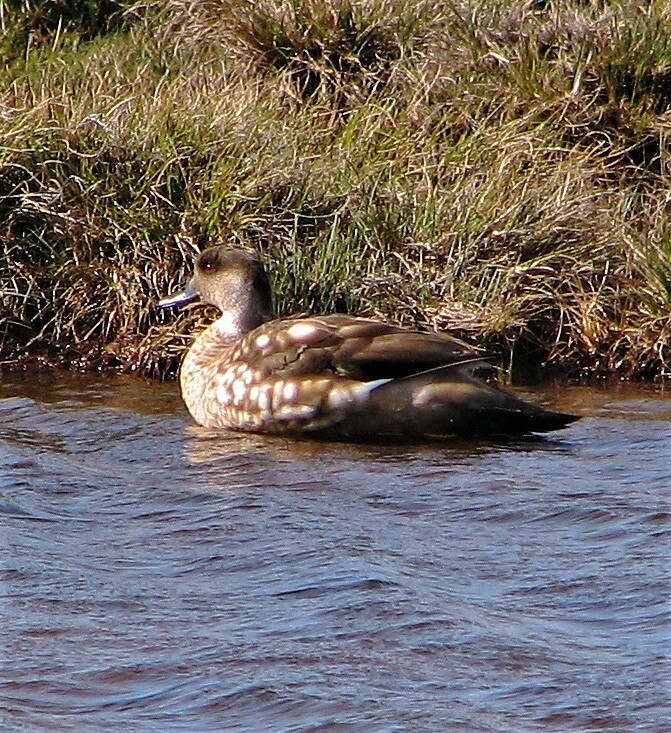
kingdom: Animalia
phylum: Chordata
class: Aves
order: Anseriformes
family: Anatidae
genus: Lophonetta
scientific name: Lophonetta specularioides
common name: Crested duck
